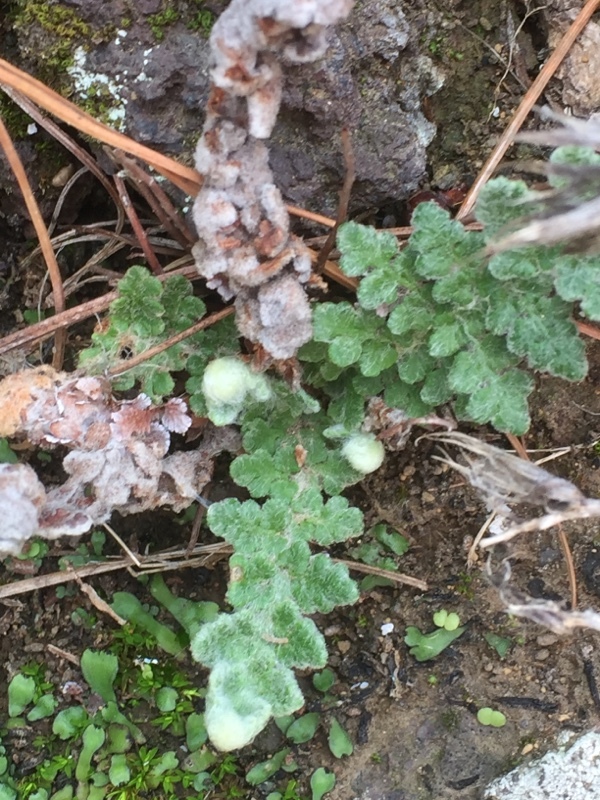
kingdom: Plantae
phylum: Tracheophyta
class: Polypodiopsida
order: Polypodiales
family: Pteridaceae
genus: Cosentinia
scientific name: Cosentinia vellea
